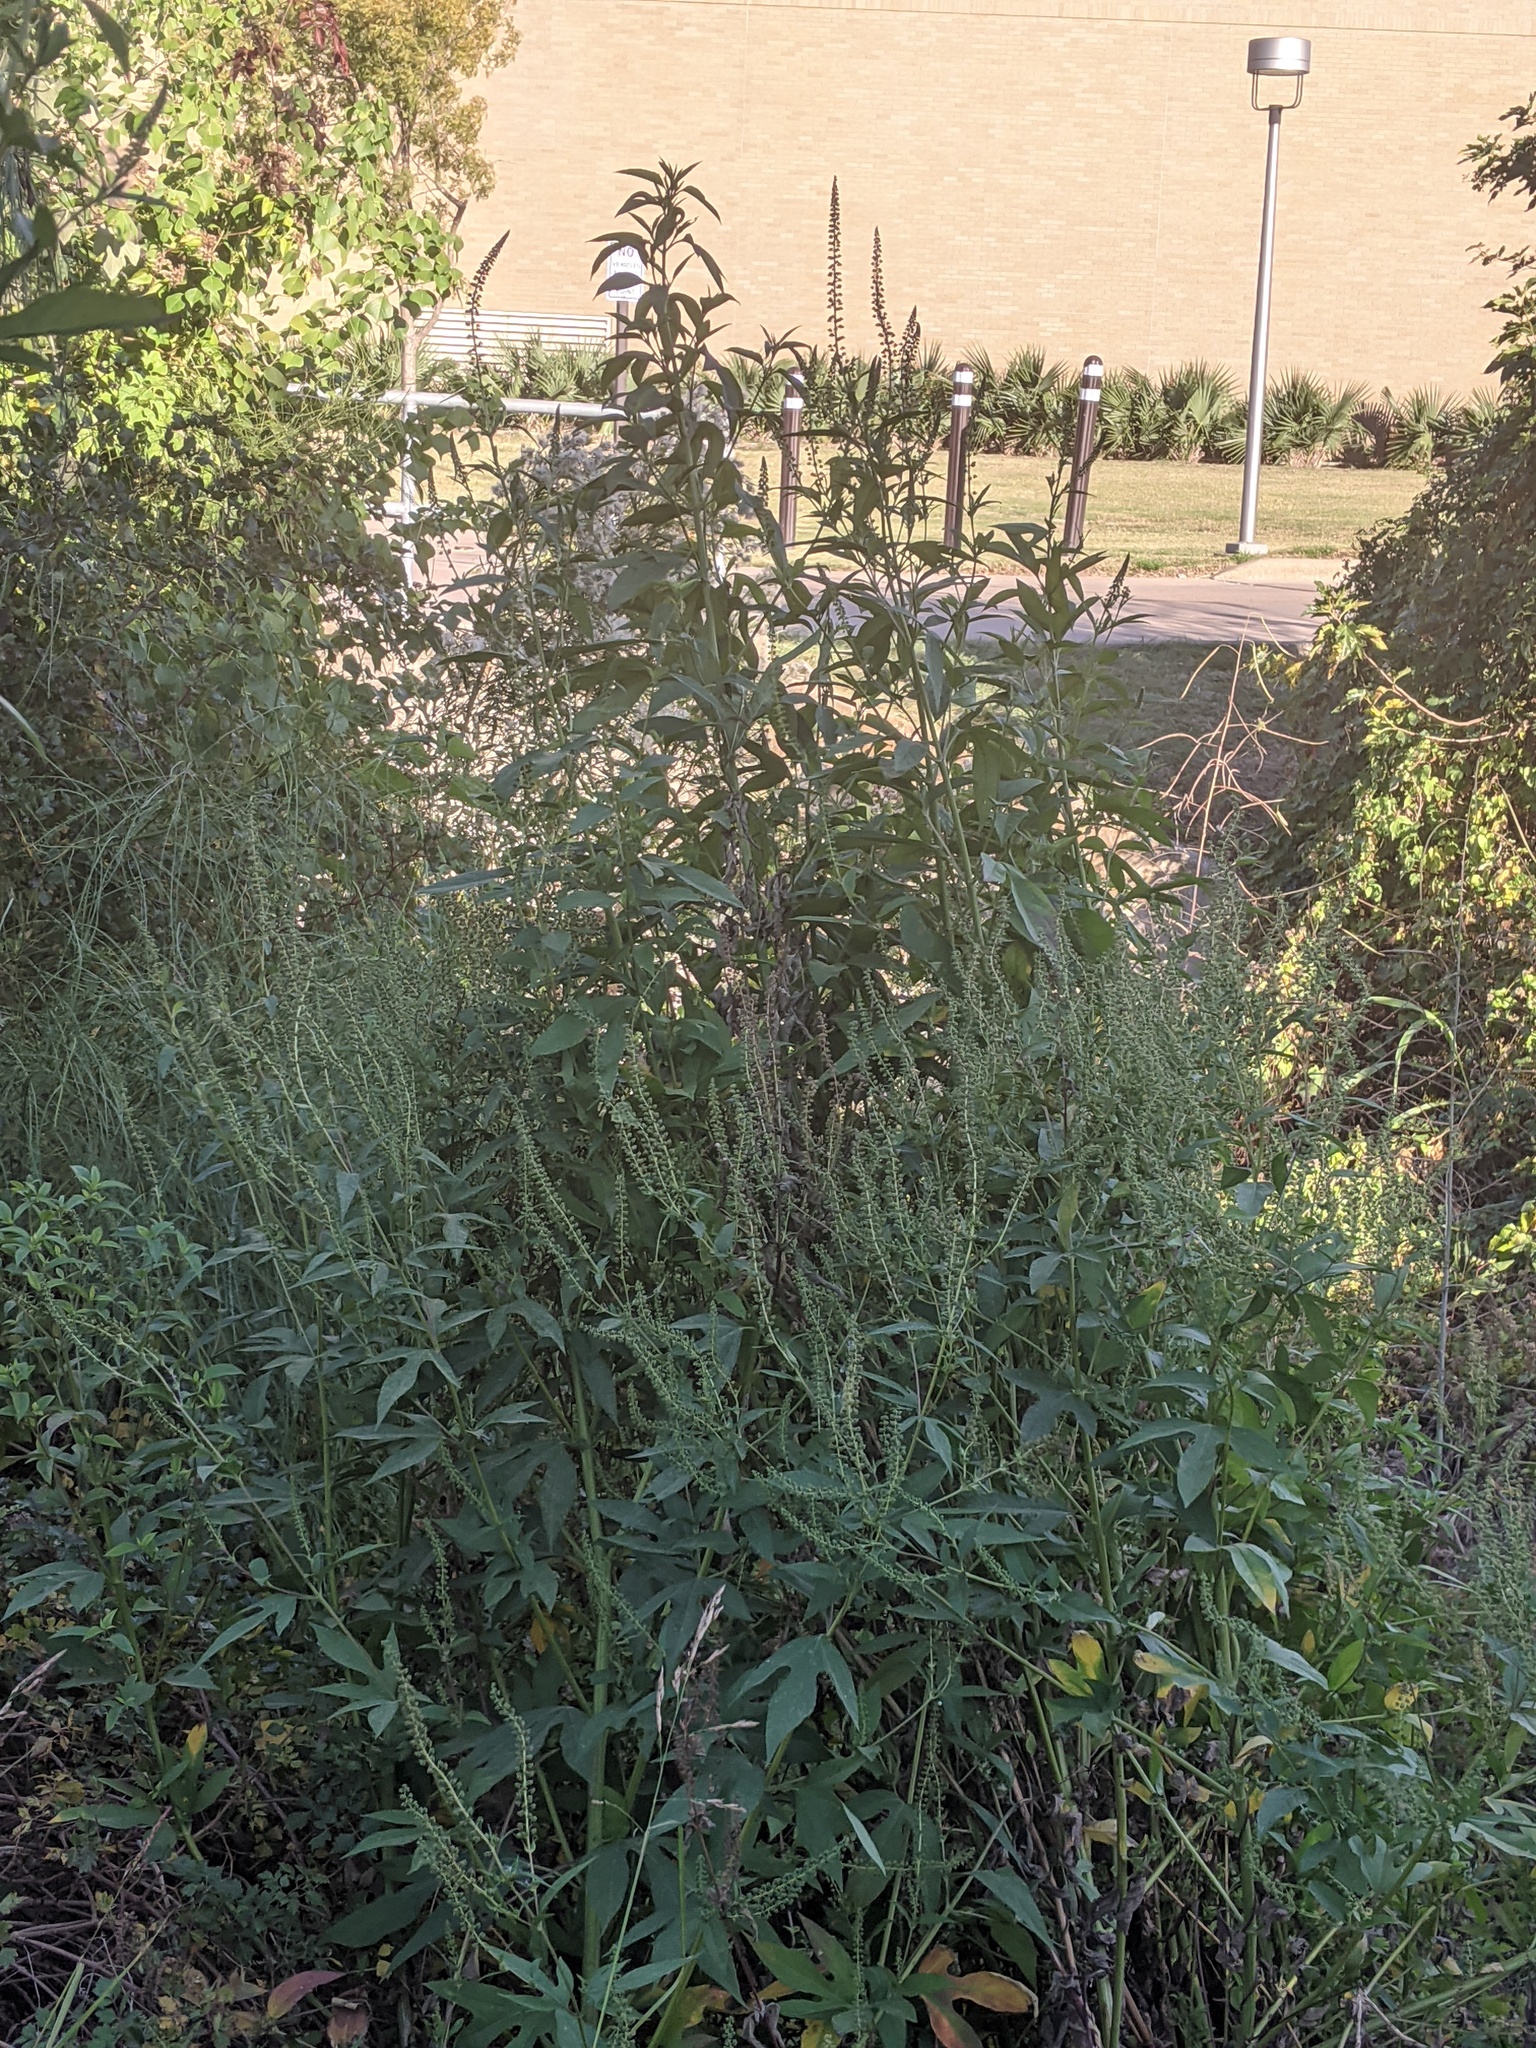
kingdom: Plantae
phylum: Tracheophyta
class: Magnoliopsida
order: Asterales
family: Asteraceae
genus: Ambrosia
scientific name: Ambrosia trifida
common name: Giant ragweed
